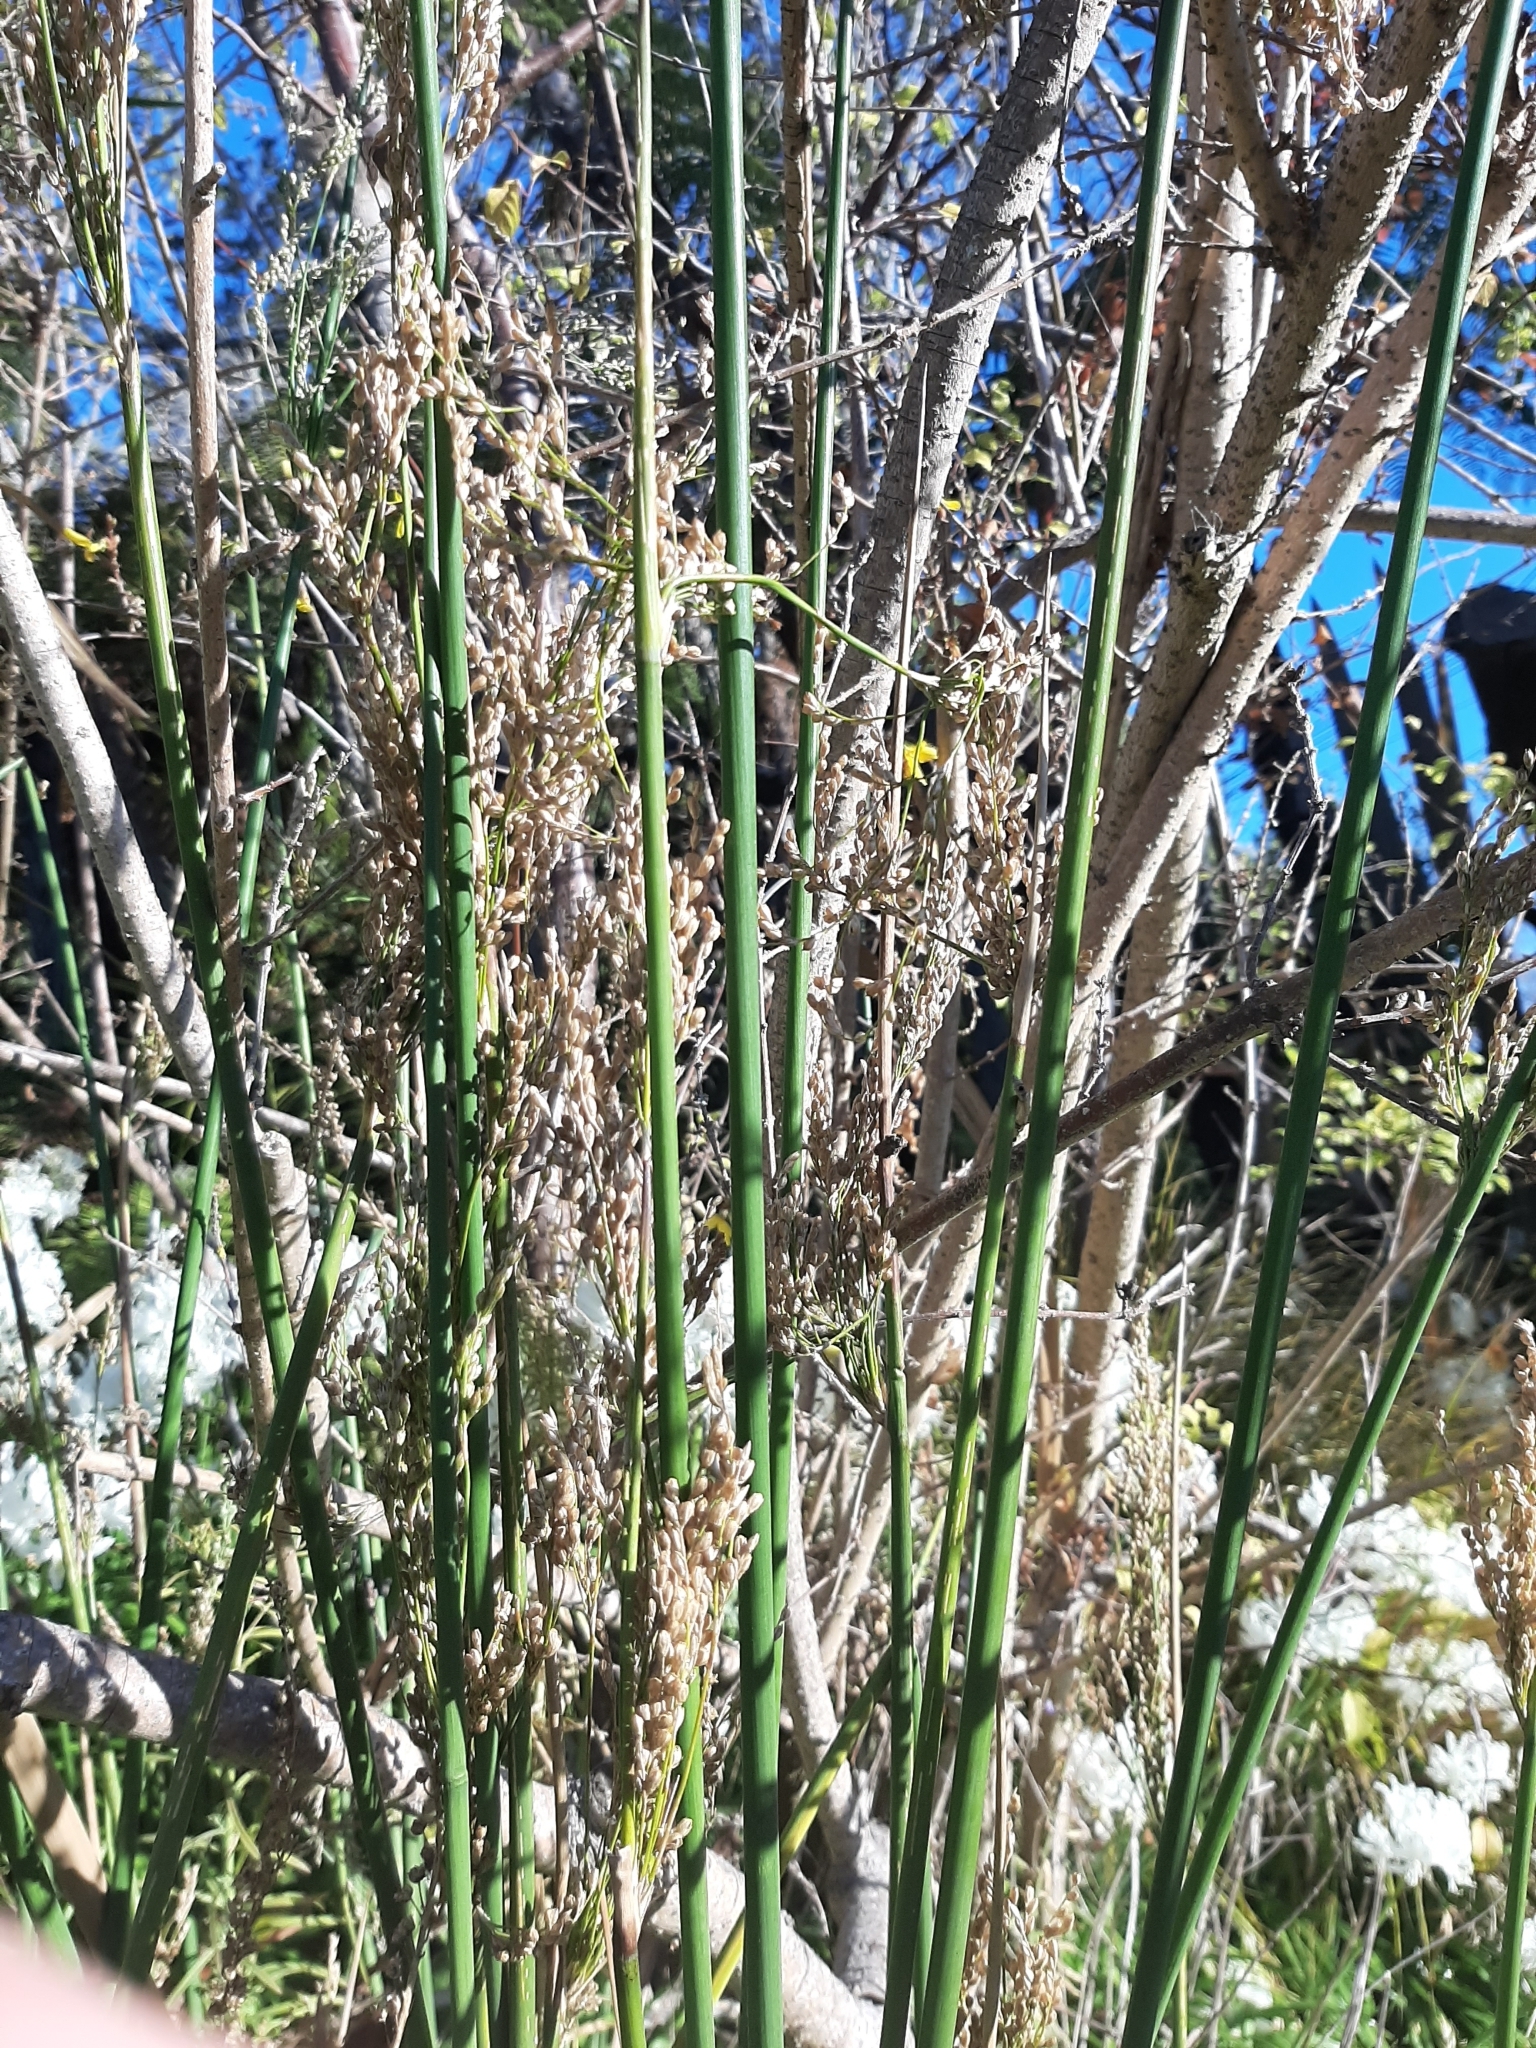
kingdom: Plantae
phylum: Tracheophyta
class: Liliopsida
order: Poales
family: Juncaceae
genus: Juncus
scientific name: Juncus pallidus
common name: Great soft-rush
